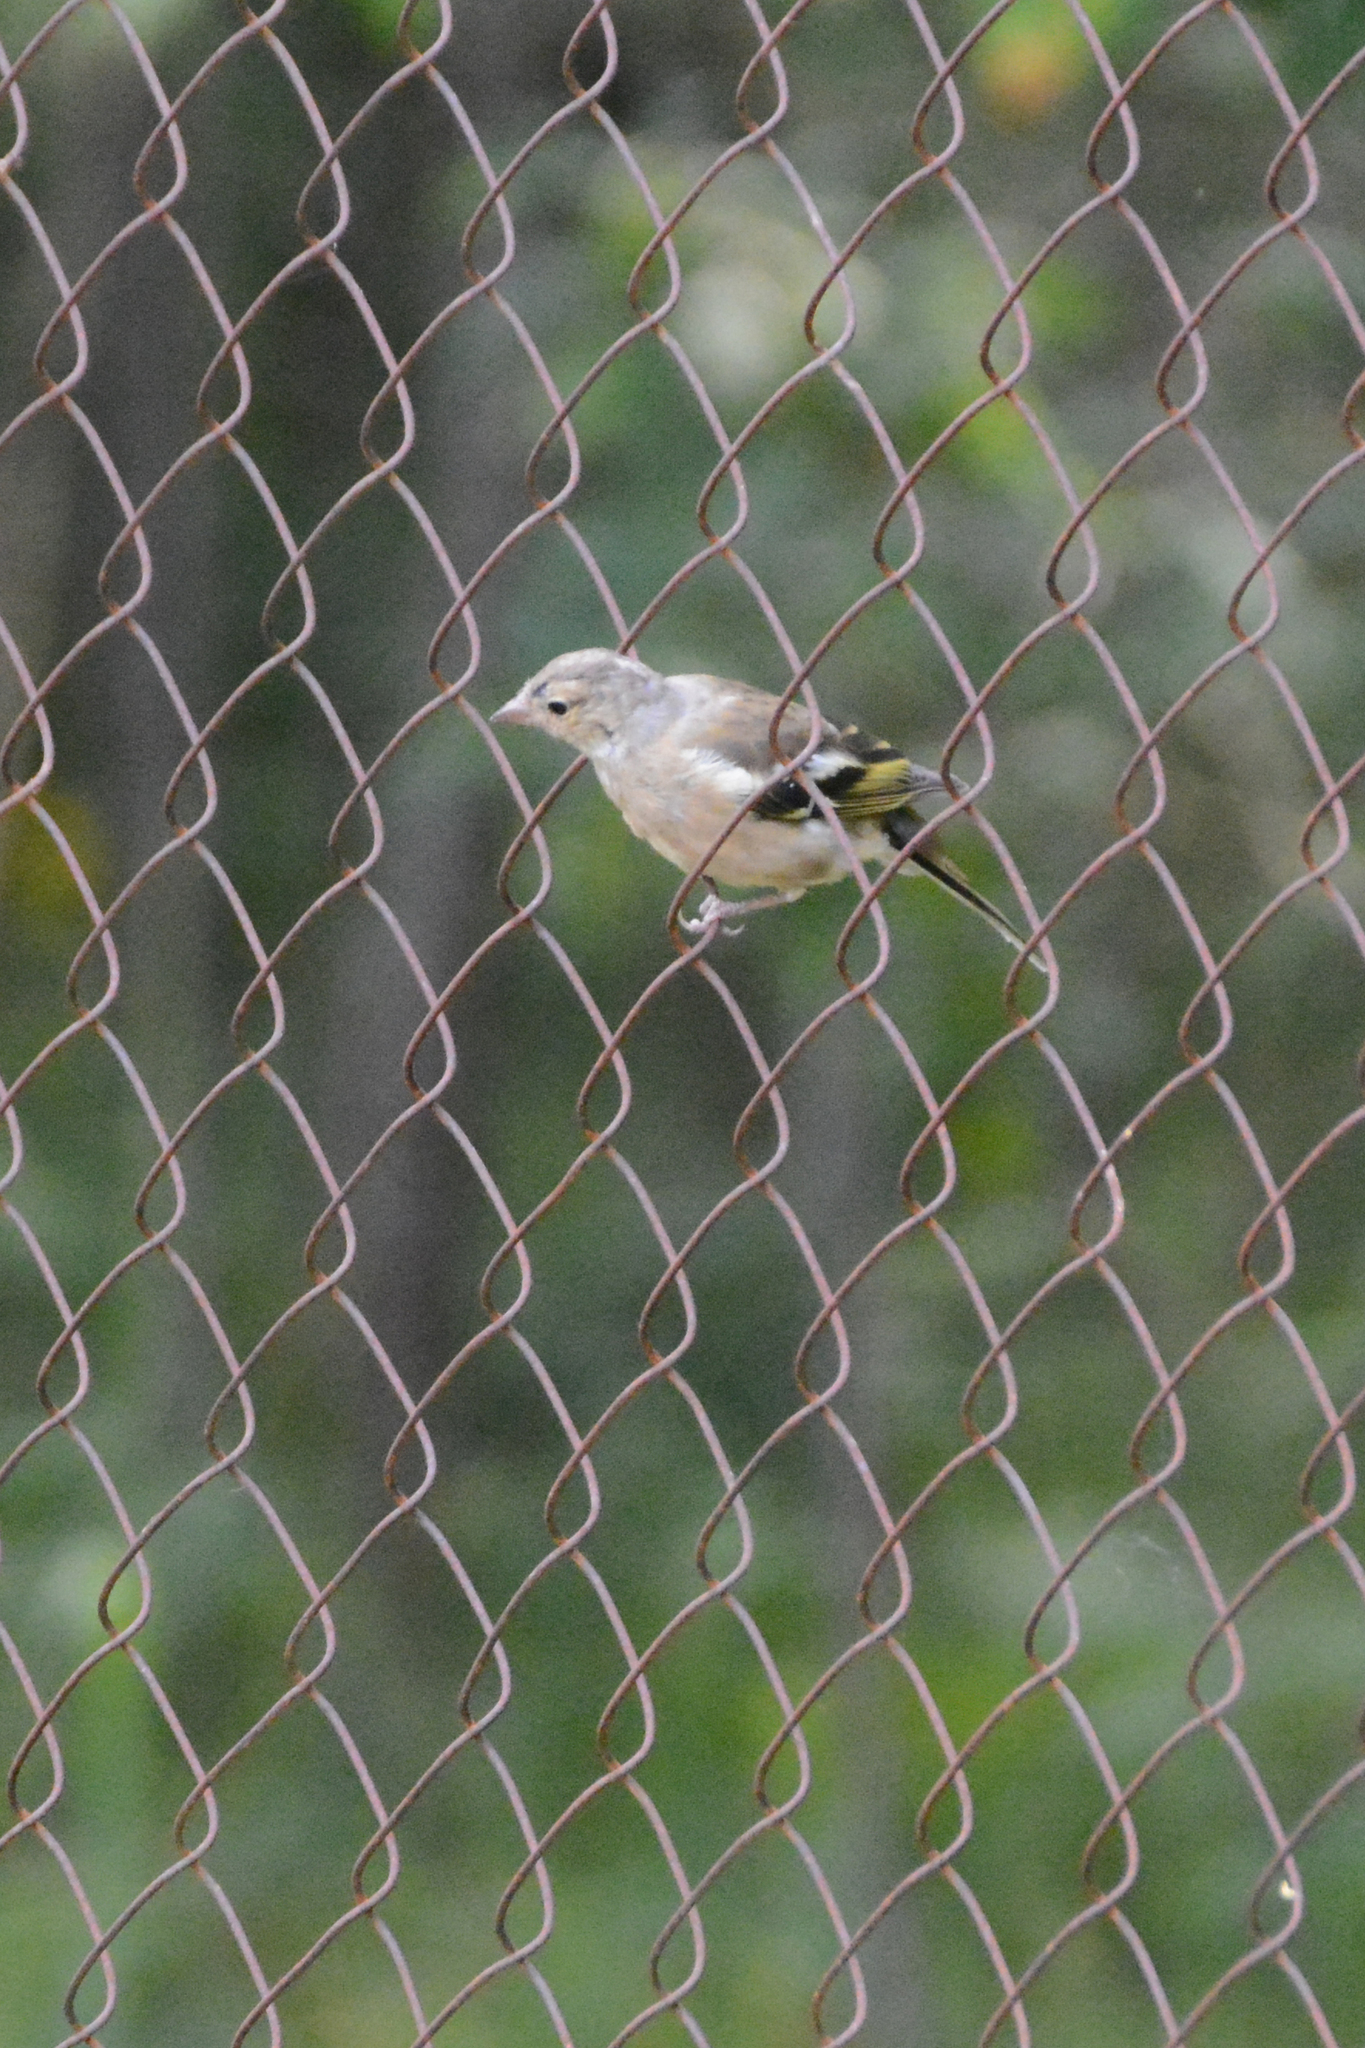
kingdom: Animalia
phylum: Chordata
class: Aves
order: Passeriformes
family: Fringillidae
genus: Carduelis
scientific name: Carduelis carduelis
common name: European goldfinch
